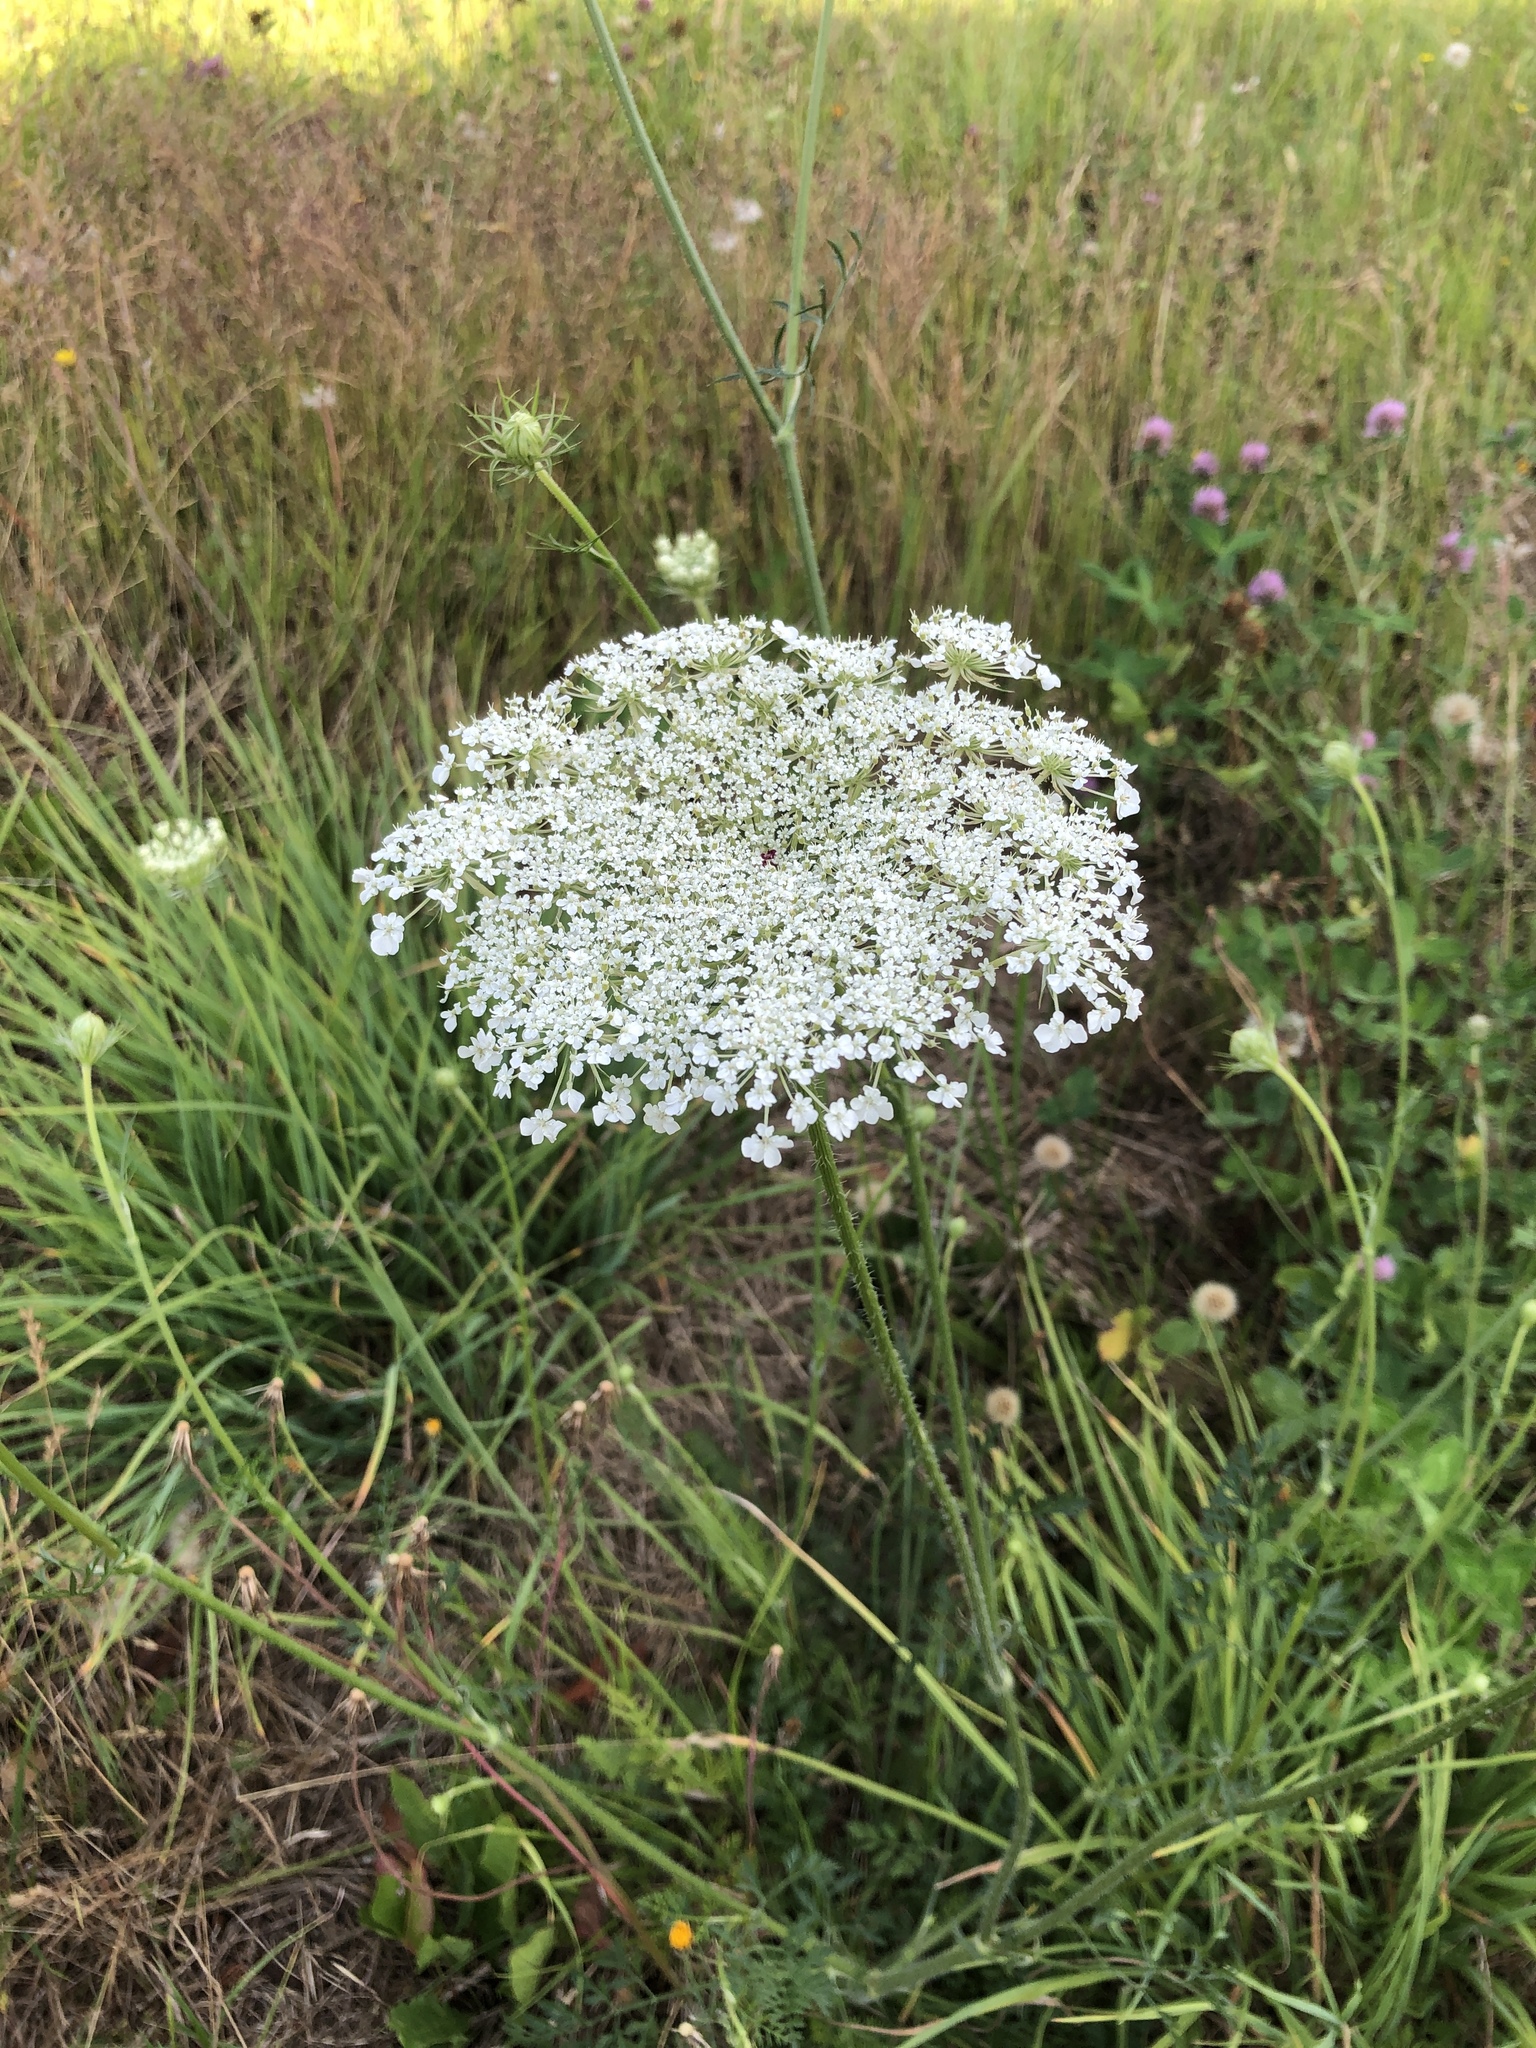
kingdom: Plantae
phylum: Tracheophyta
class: Magnoliopsida
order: Apiales
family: Apiaceae
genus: Daucus
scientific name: Daucus carota
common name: Wild carrot
